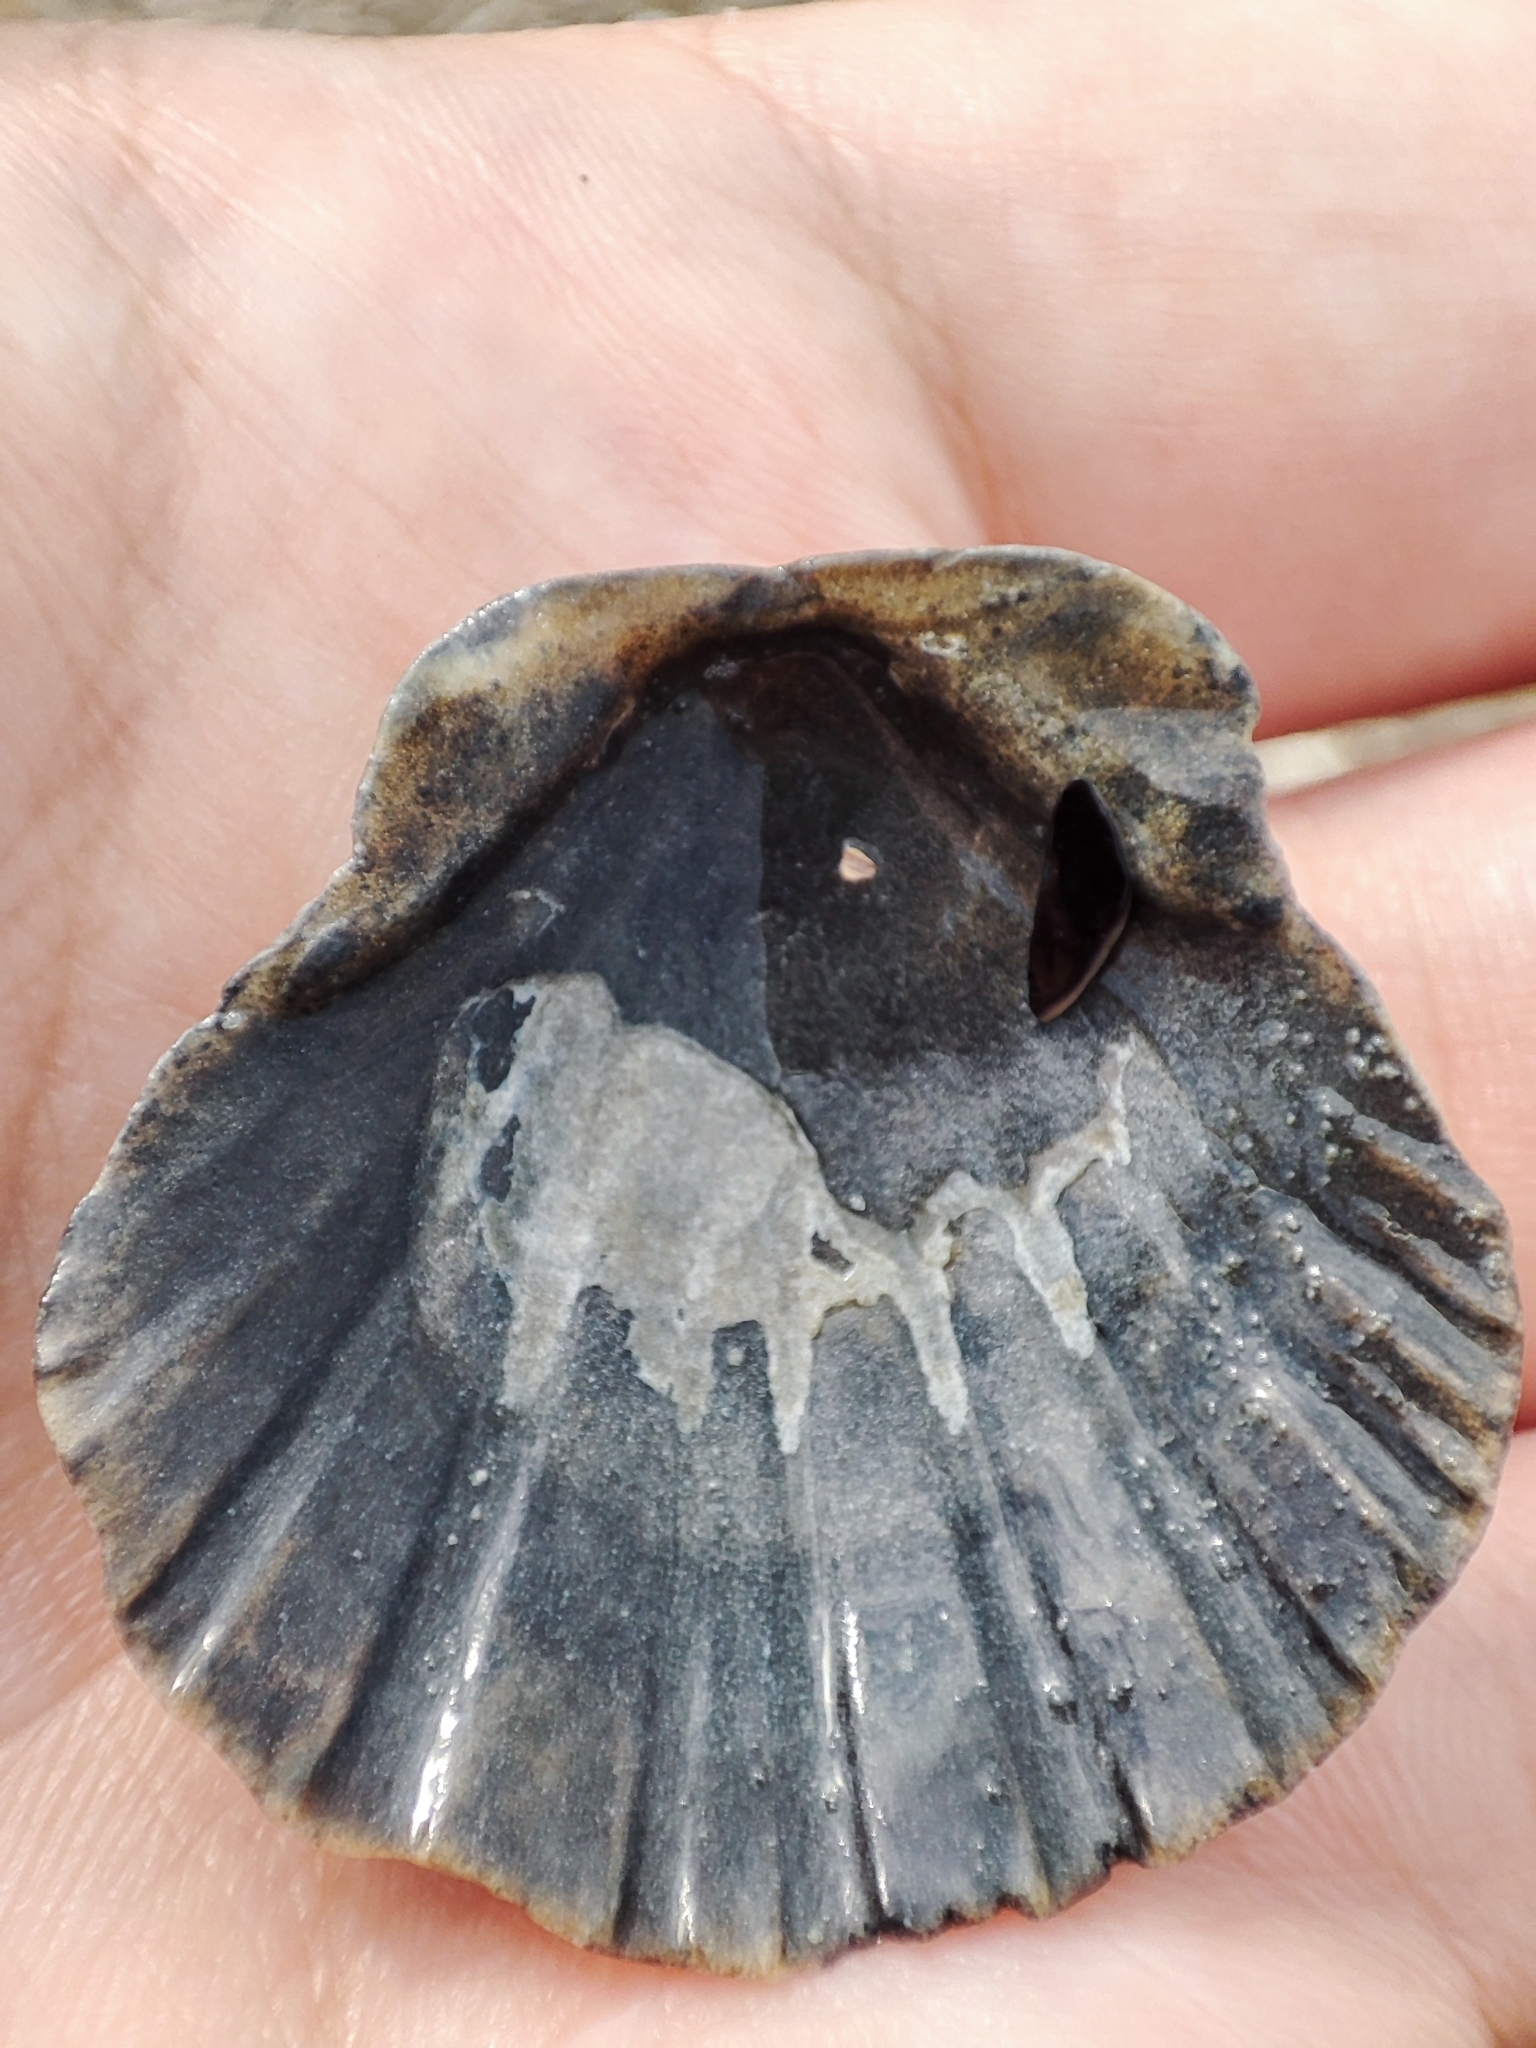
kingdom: Animalia
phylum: Mollusca
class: Bivalvia
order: Pectinida
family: Pectinidae
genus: Flexopecten
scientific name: Flexopecten glaber
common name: Smooth scallop
